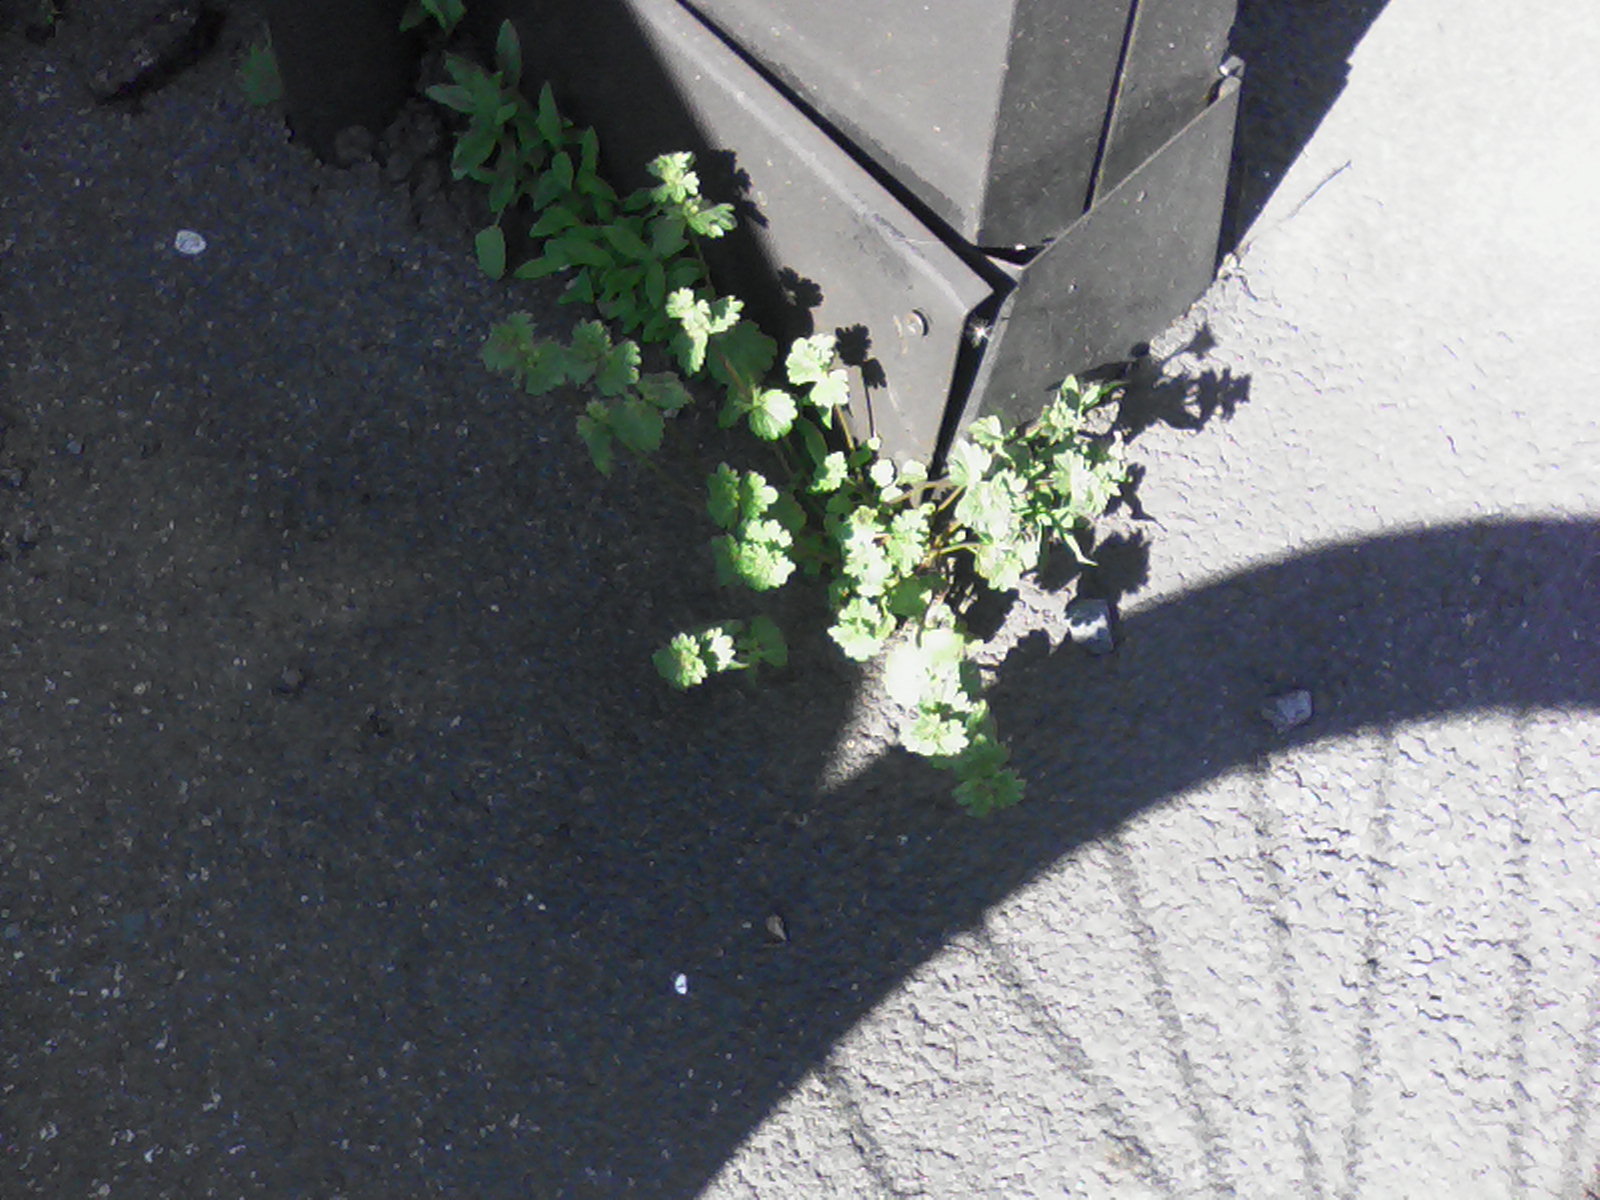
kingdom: Plantae
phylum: Tracheophyta
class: Magnoliopsida
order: Lamiales
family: Lamiaceae
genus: Lamium
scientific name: Lamium amplexicaule
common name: Henbit dead-nettle
